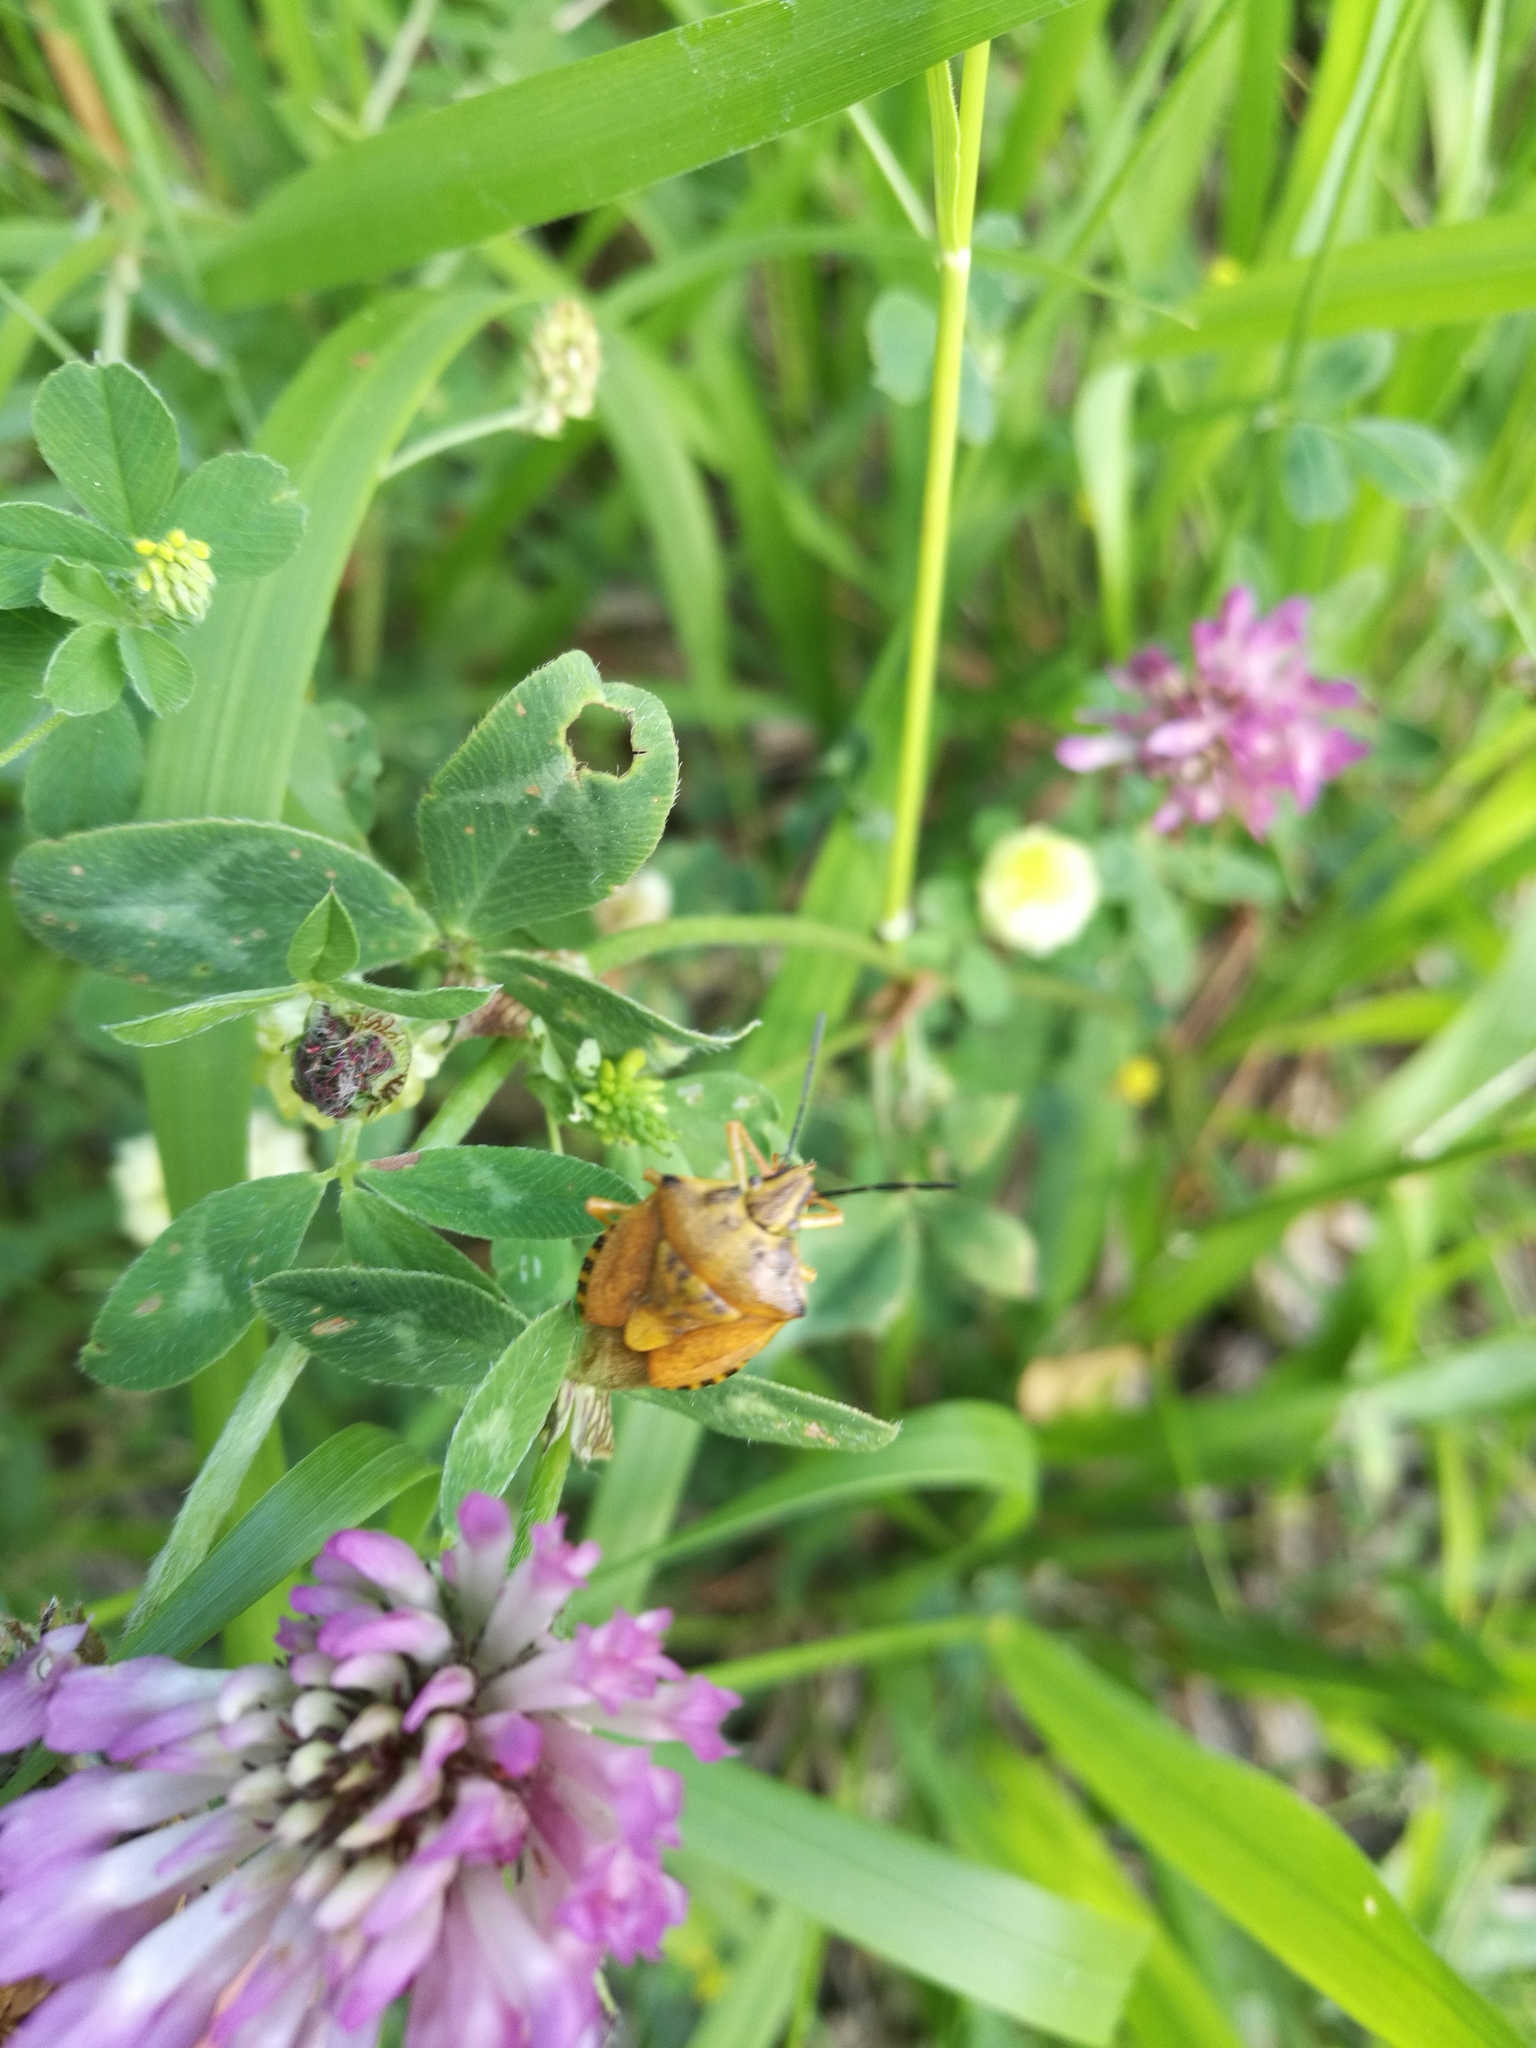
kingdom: Animalia
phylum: Arthropoda
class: Insecta
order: Hemiptera
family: Pentatomidae
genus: Carpocoris
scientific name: Carpocoris purpureipennis
